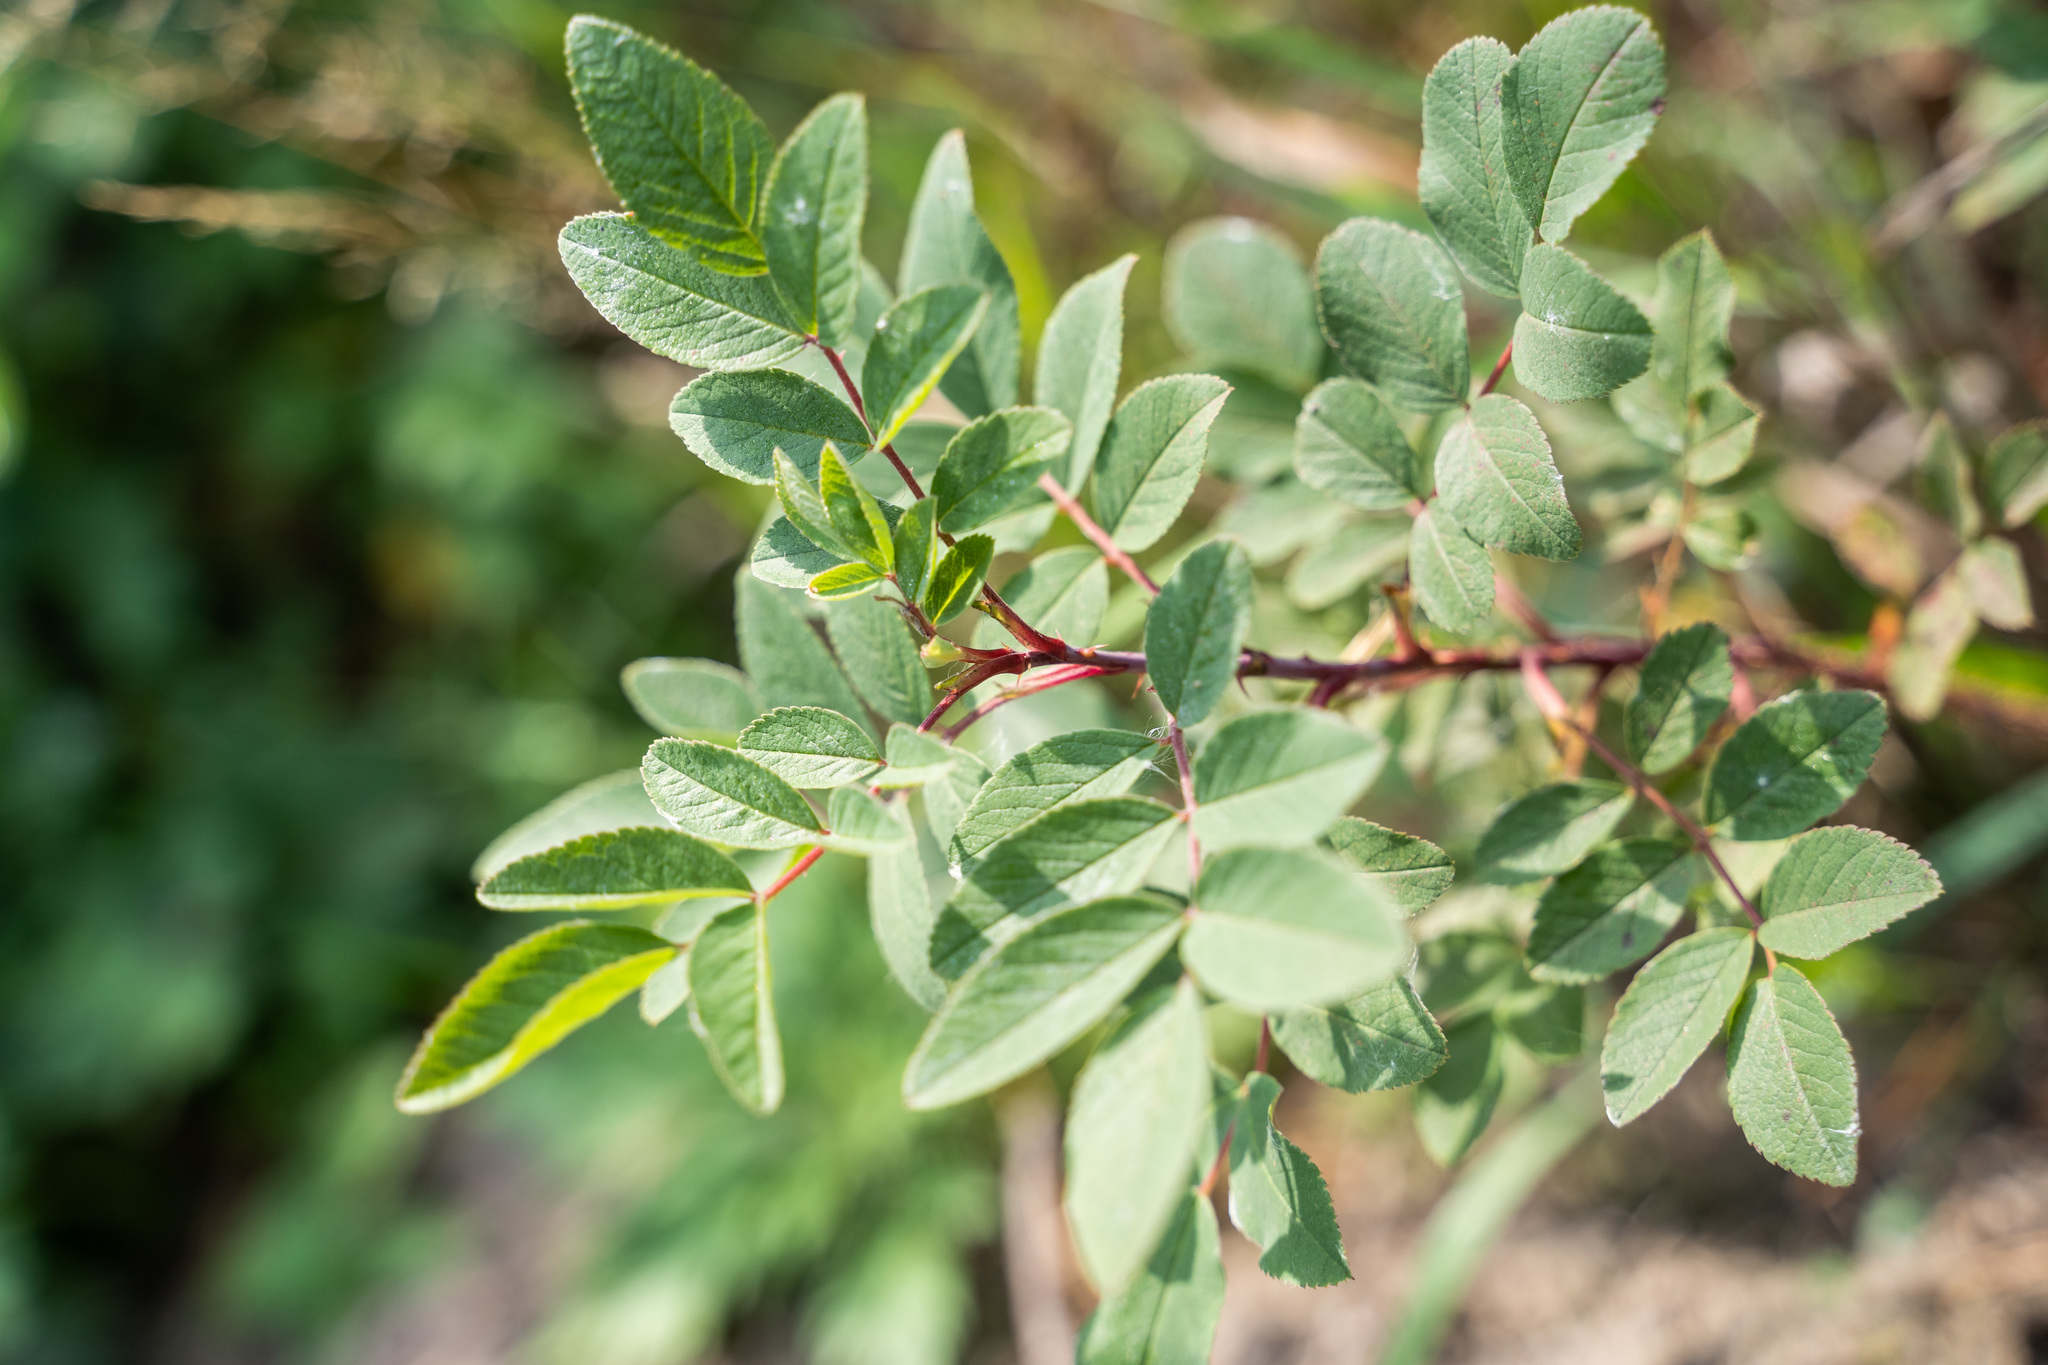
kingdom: Plantae
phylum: Tracheophyta
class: Magnoliopsida
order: Rosales
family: Rosaceae
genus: Rosa
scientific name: Rosa
